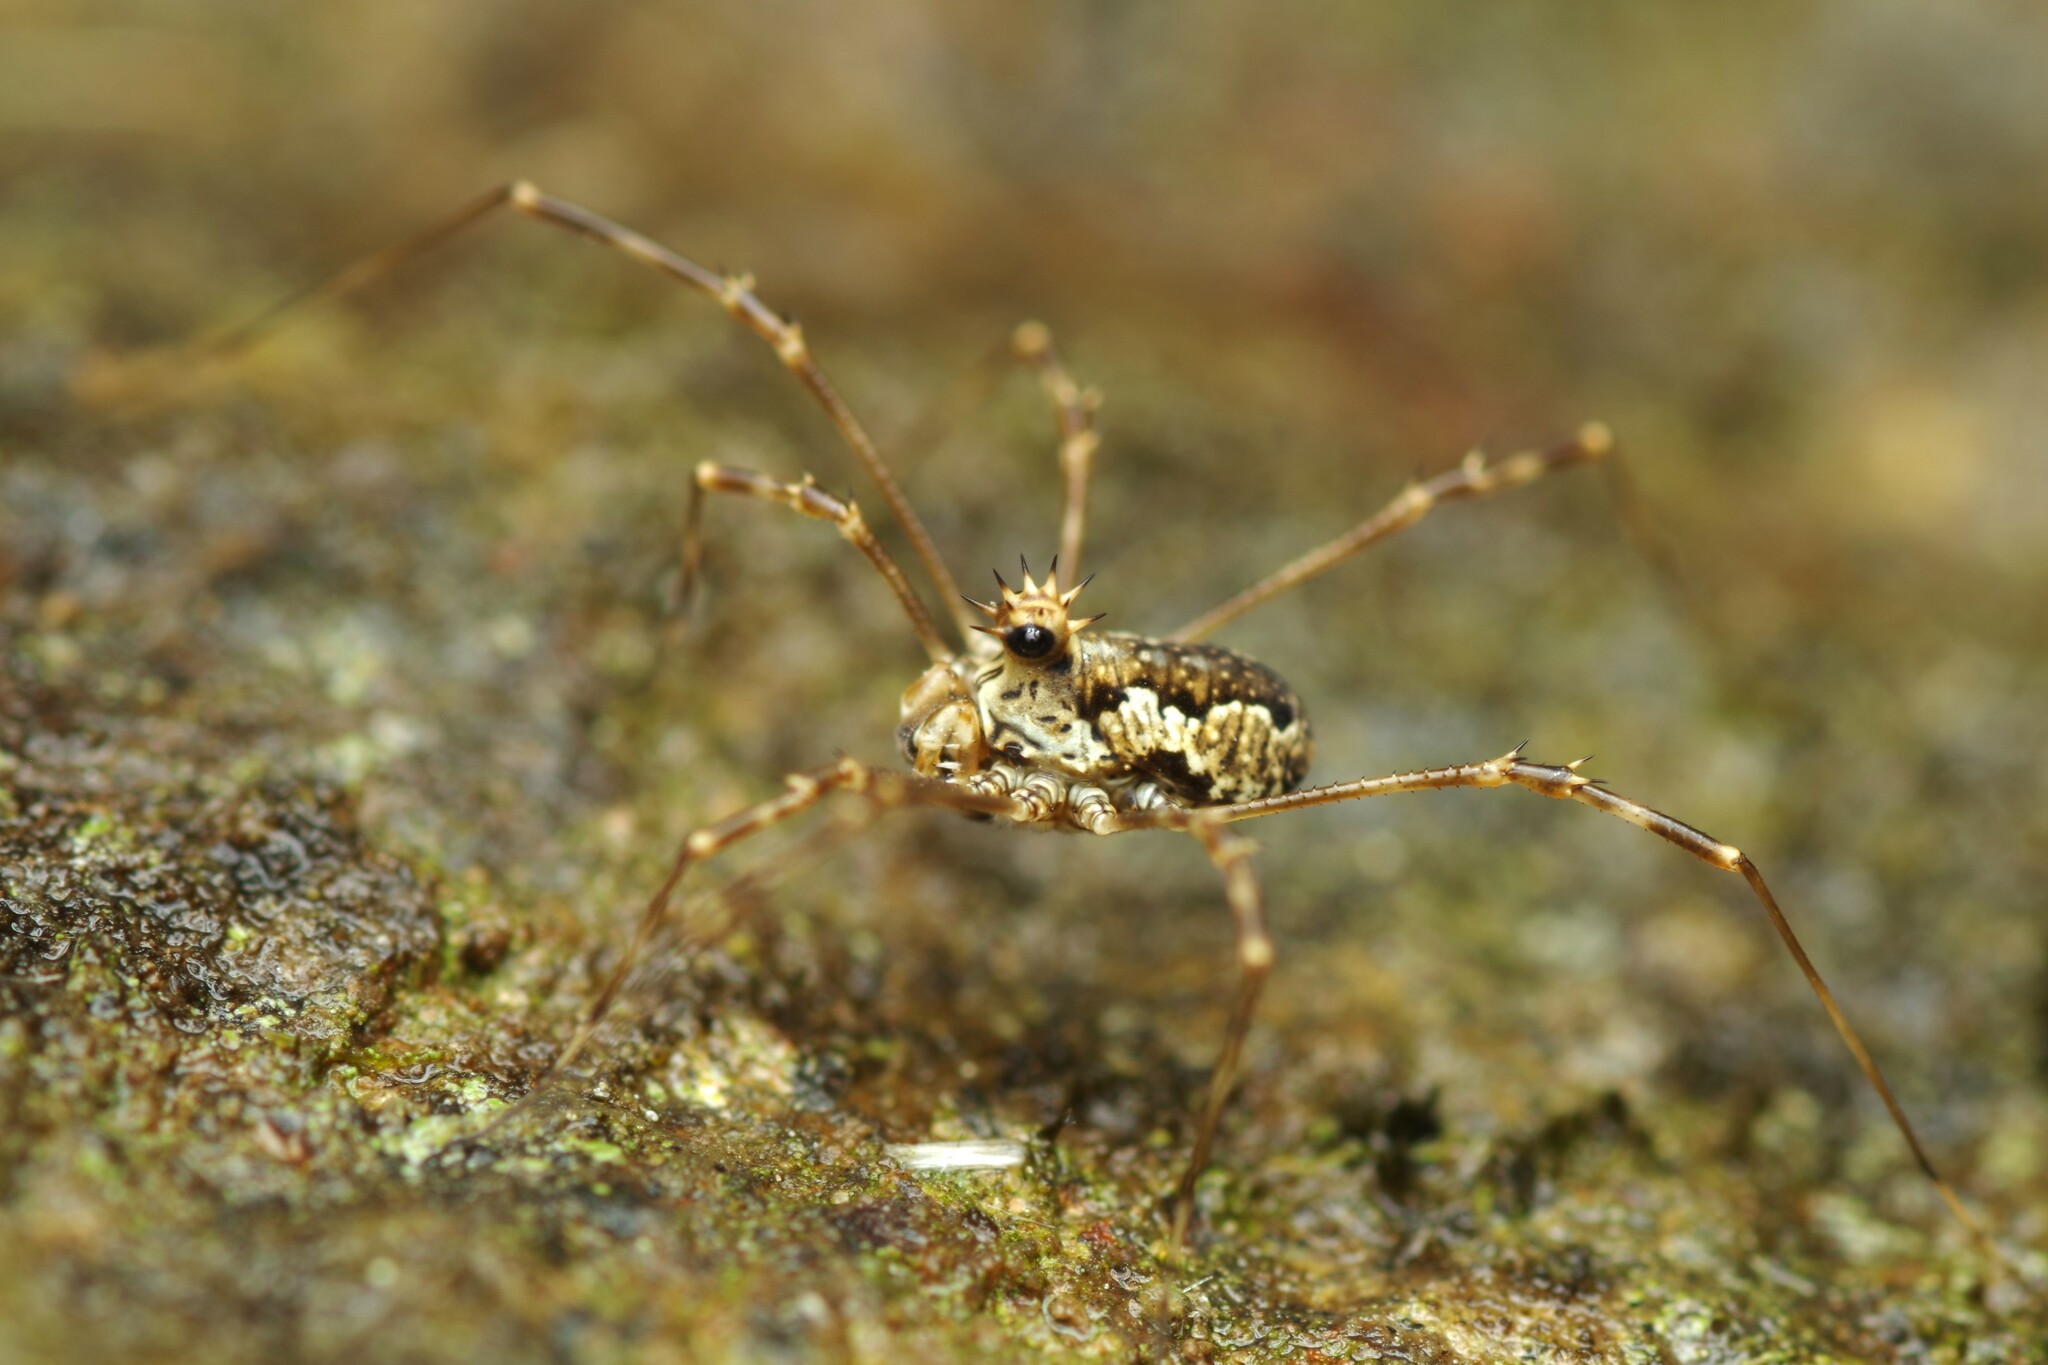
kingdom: Animalia
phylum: Arthropoda
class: Arachnida
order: Opiliones
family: Phalangiidae
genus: Megabunus
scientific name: Megabunus diadema
